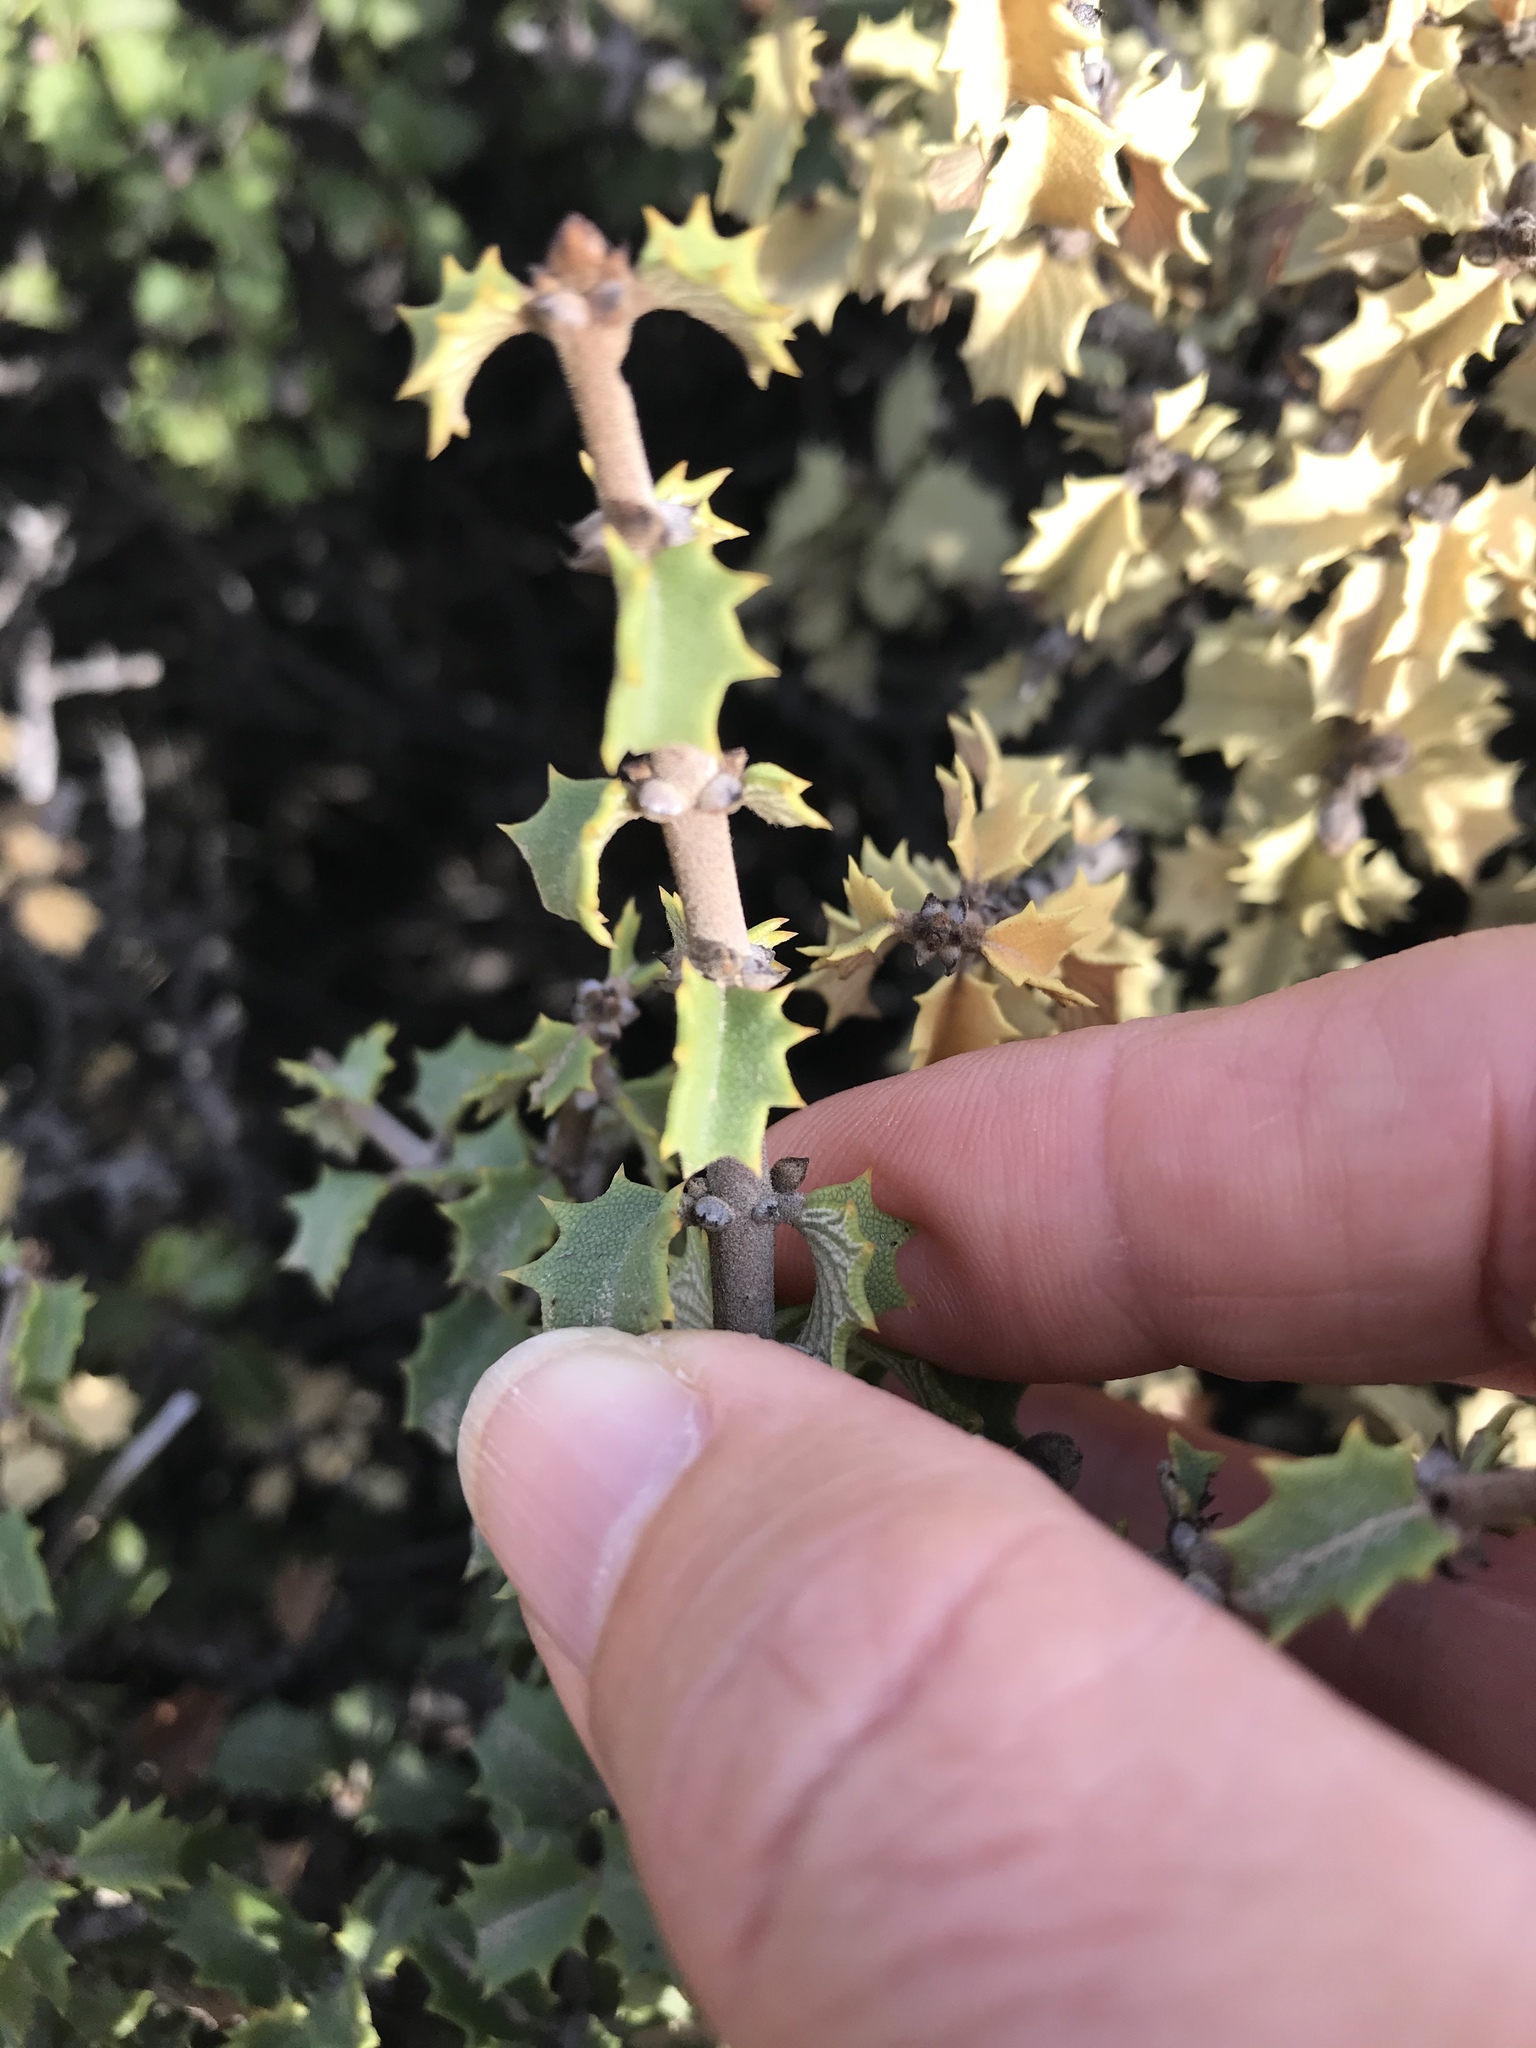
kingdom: Plantae
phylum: Tracheophyta
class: Magnoliopsida
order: Rosales
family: Rhamnaceae
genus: Ceanothus
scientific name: Ceanothus jepsonii
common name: Muskbrush
